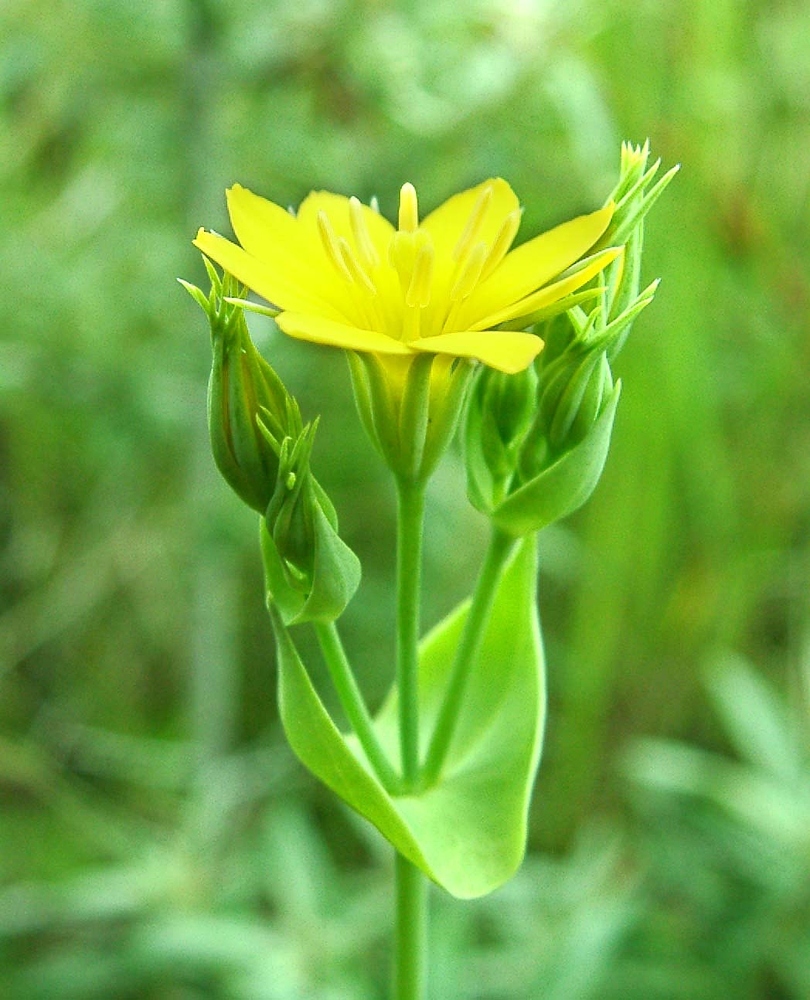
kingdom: Plantae
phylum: Tracheophyta
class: Magnoliopsida
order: Gentianales
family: Gentianaceae
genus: Blackstonia
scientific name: Blackstonia perfoliata
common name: Yellow-wort
